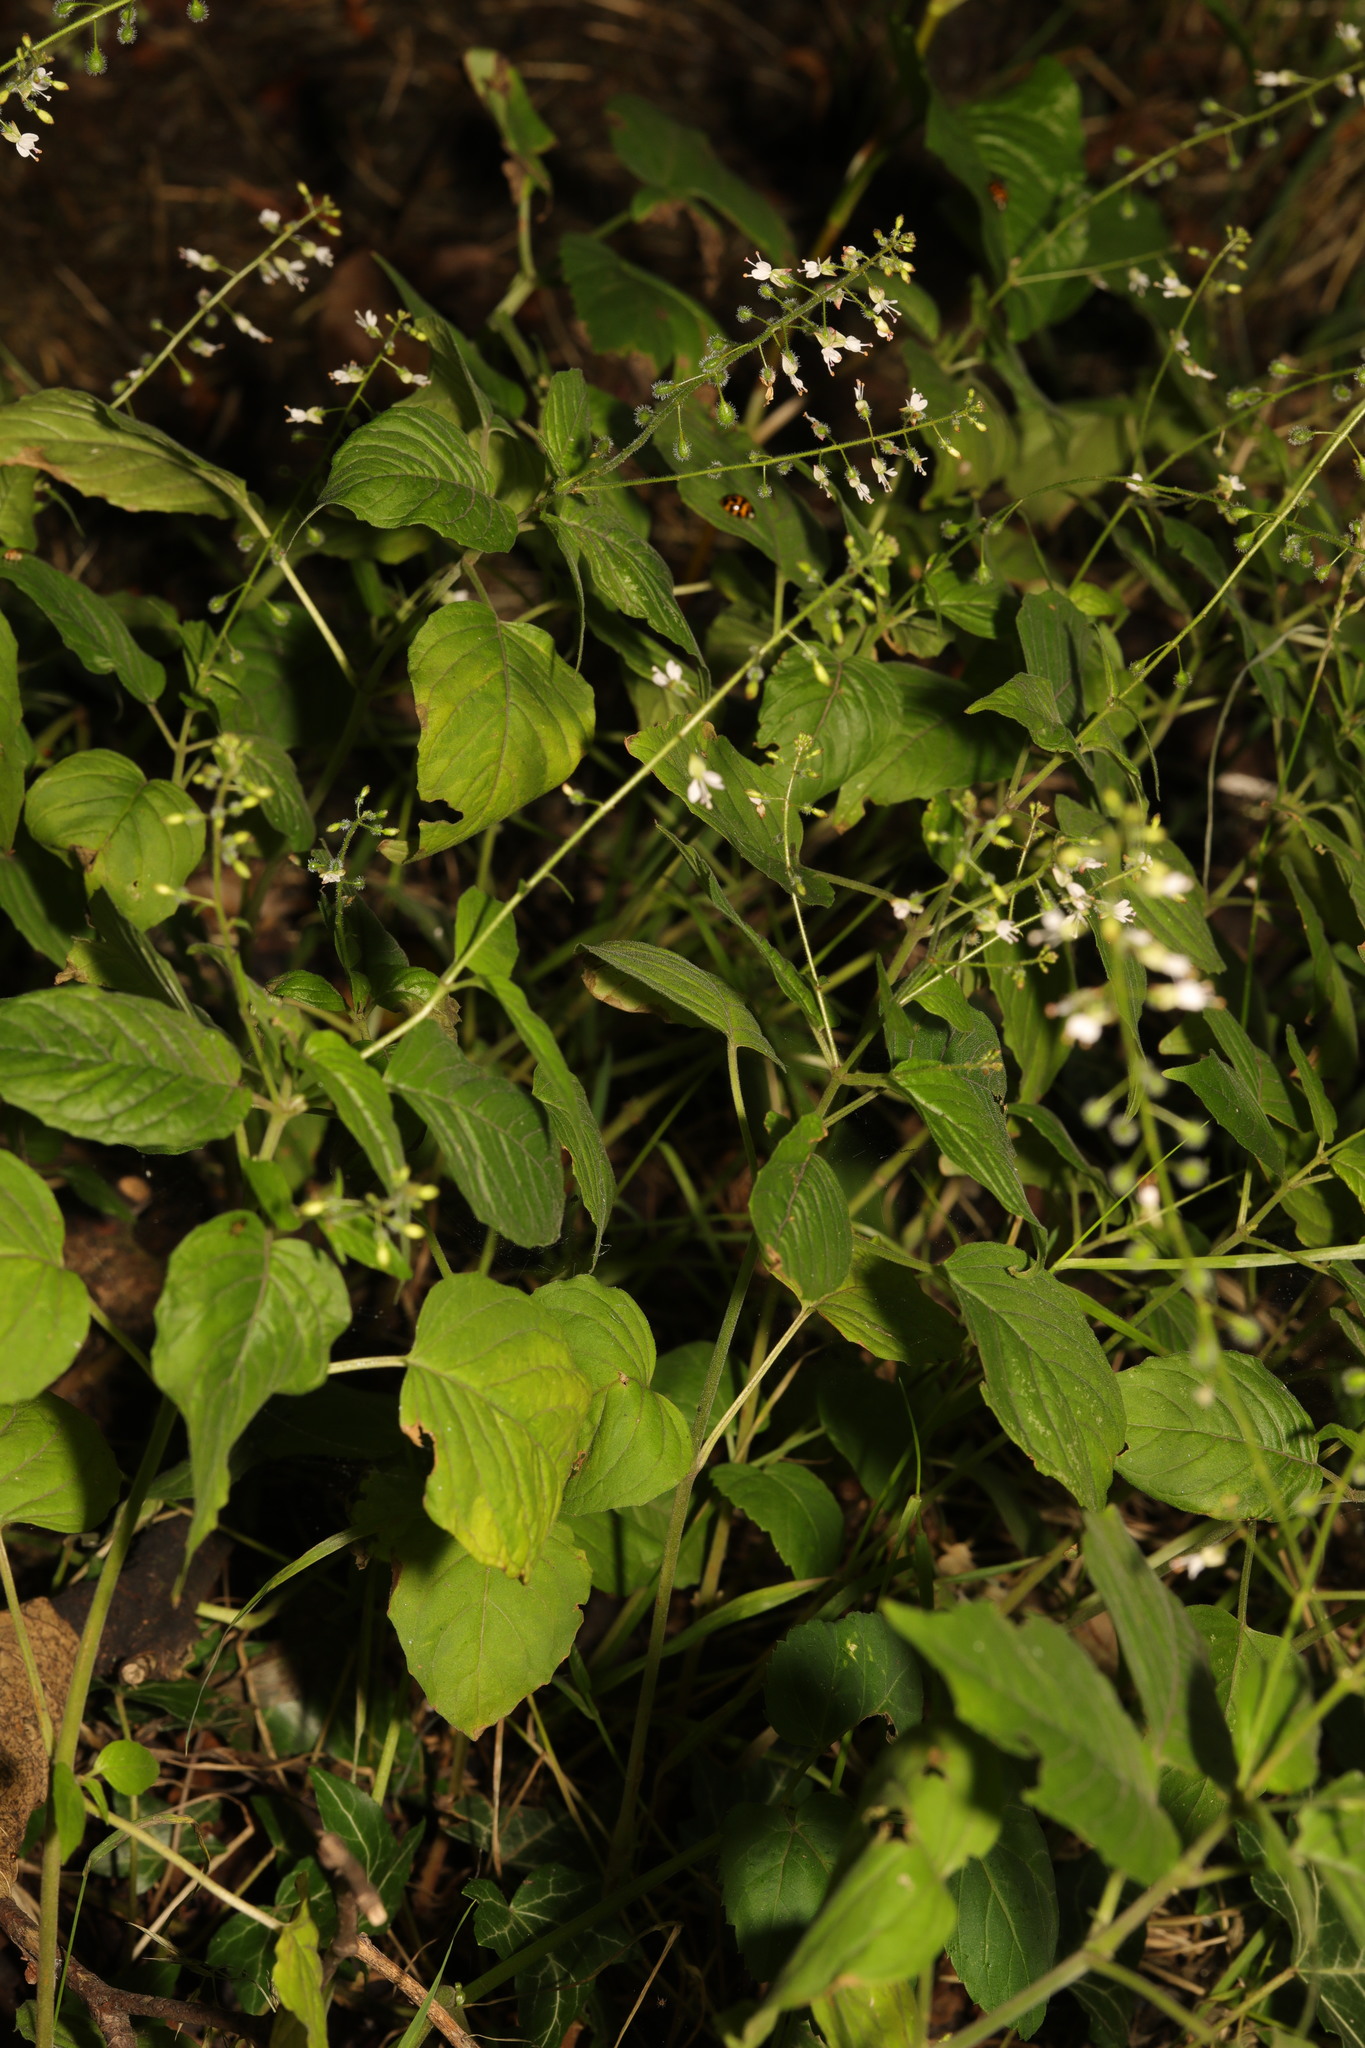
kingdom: Plantae
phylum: Tracheophyta
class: Magnoliopsida
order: Myrtales
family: Onagraceae
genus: Circaea
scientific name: Circaea lutetiana
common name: Enchanter's-nightshade
